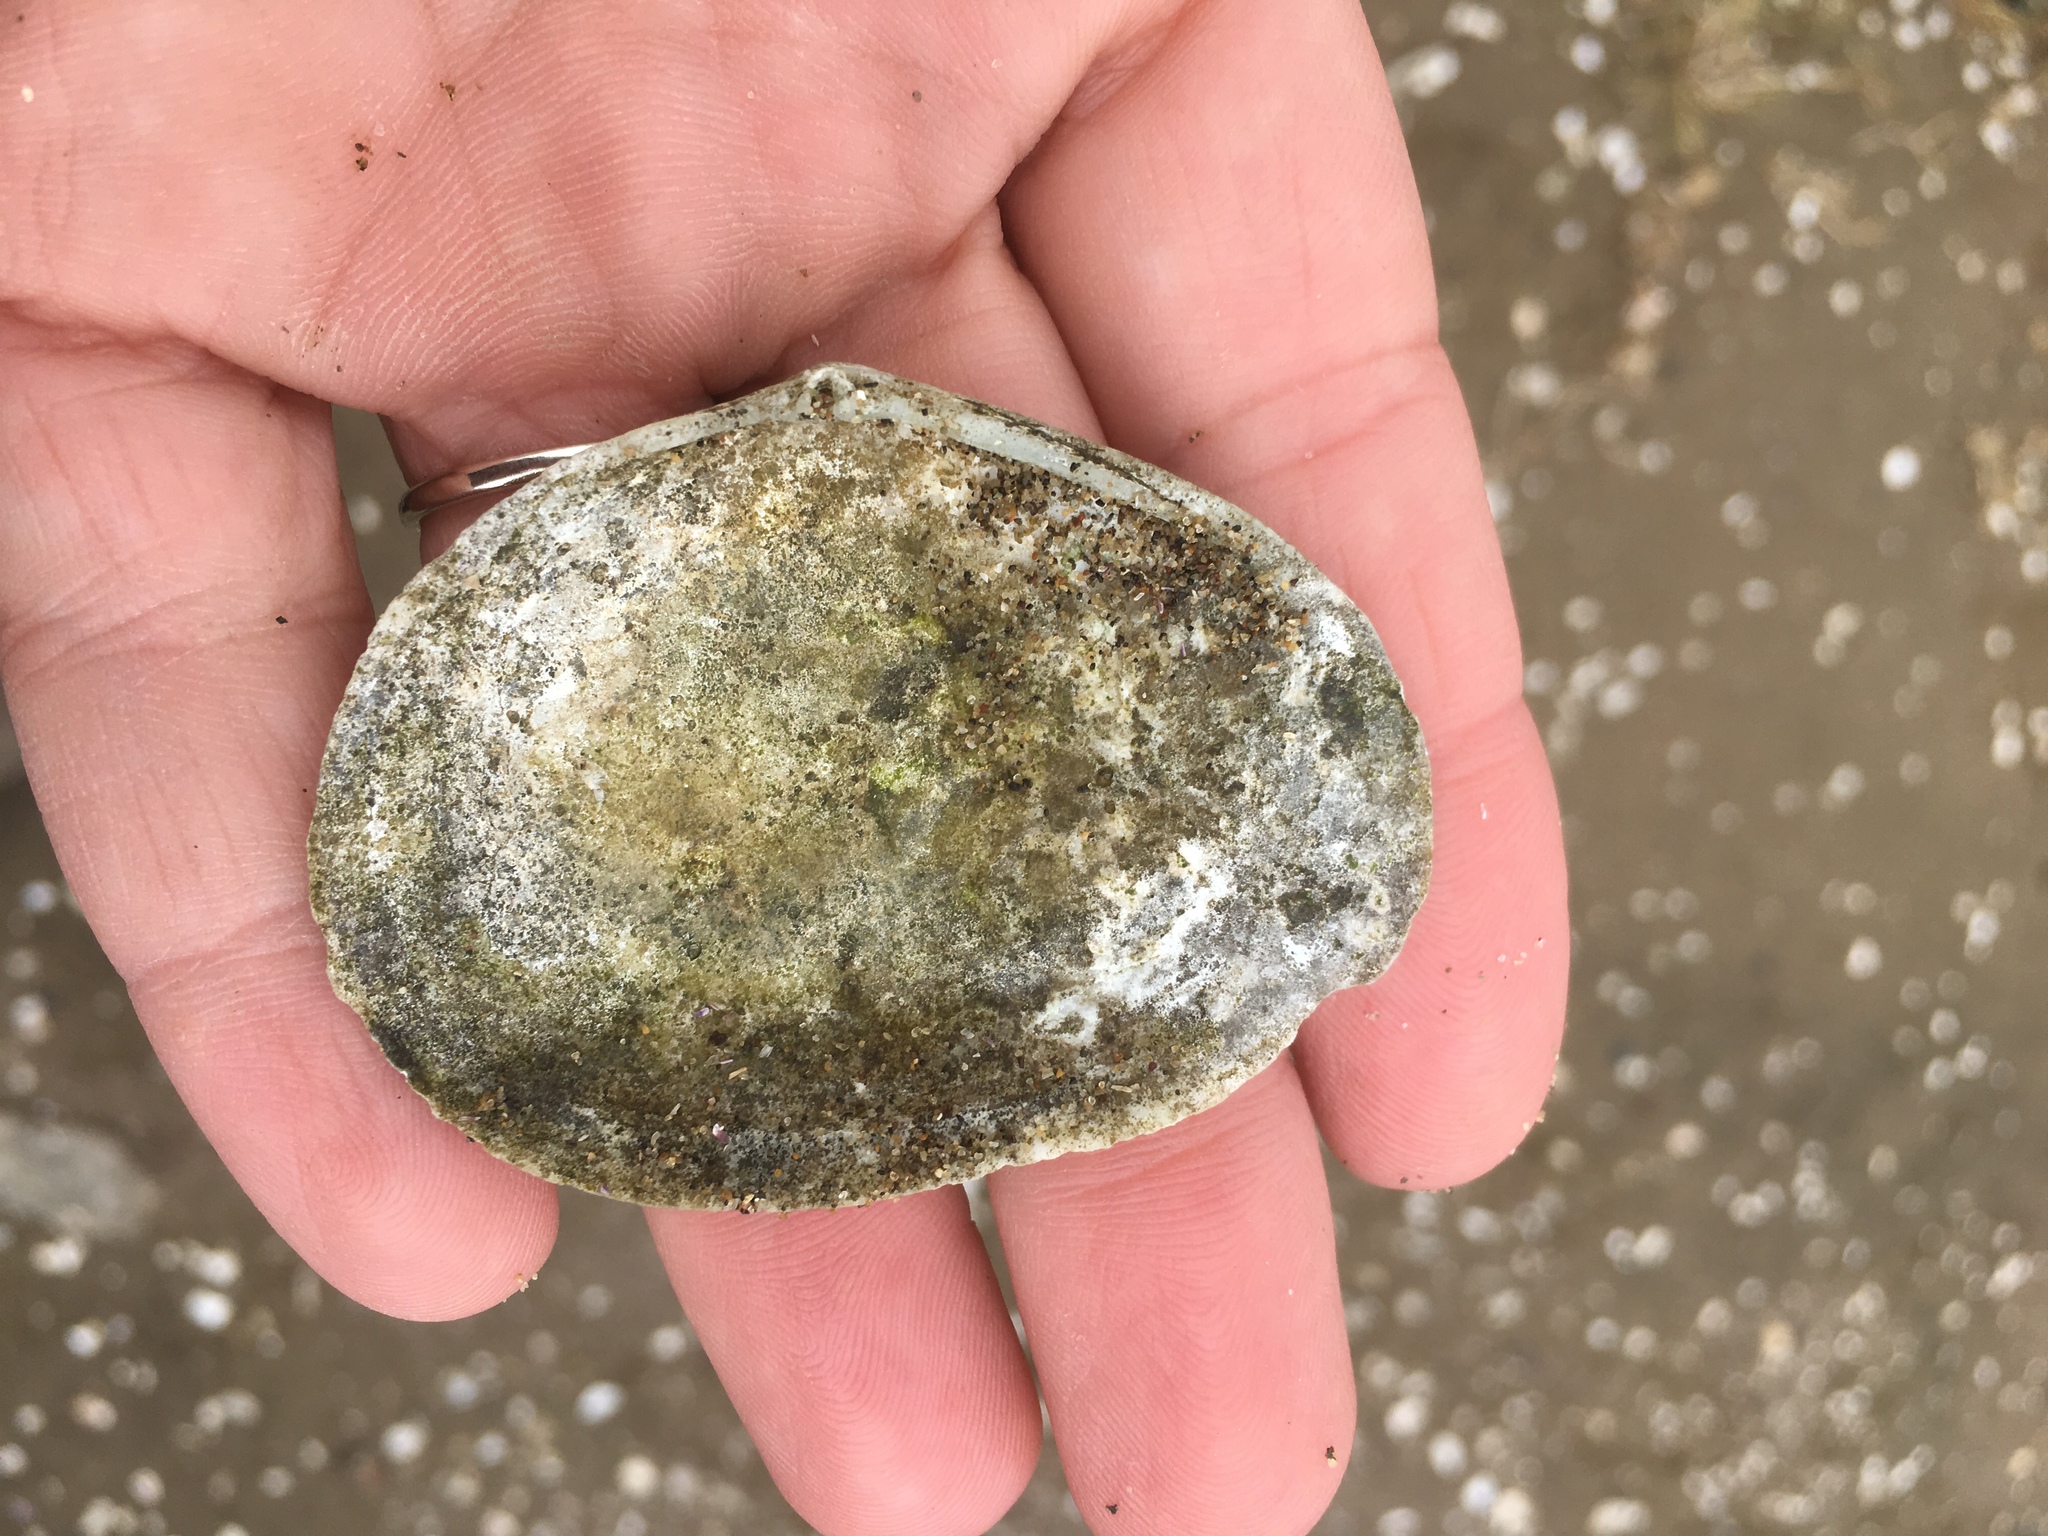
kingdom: Animalia
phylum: Mollusca
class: Bivalvia
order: Cardiida
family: Tellinidae
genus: Macoma
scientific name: Macoma nasuta
